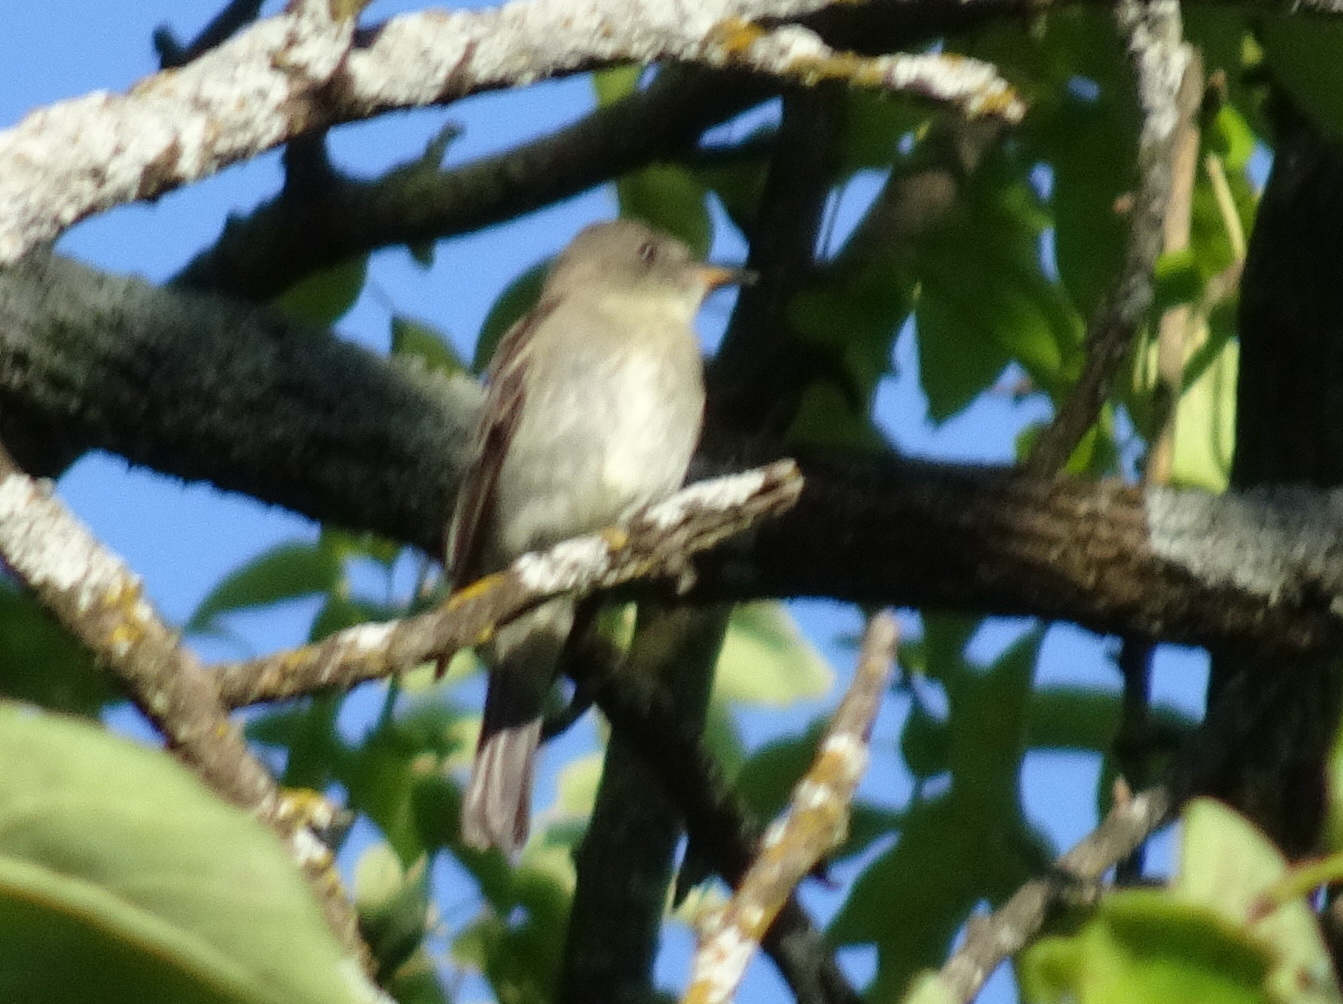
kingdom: Animalia
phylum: Chordata
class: Aves
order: Passeriformes
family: Tyrannidae
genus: Contopus
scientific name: Contopus virens
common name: Eastern wood-pewee
